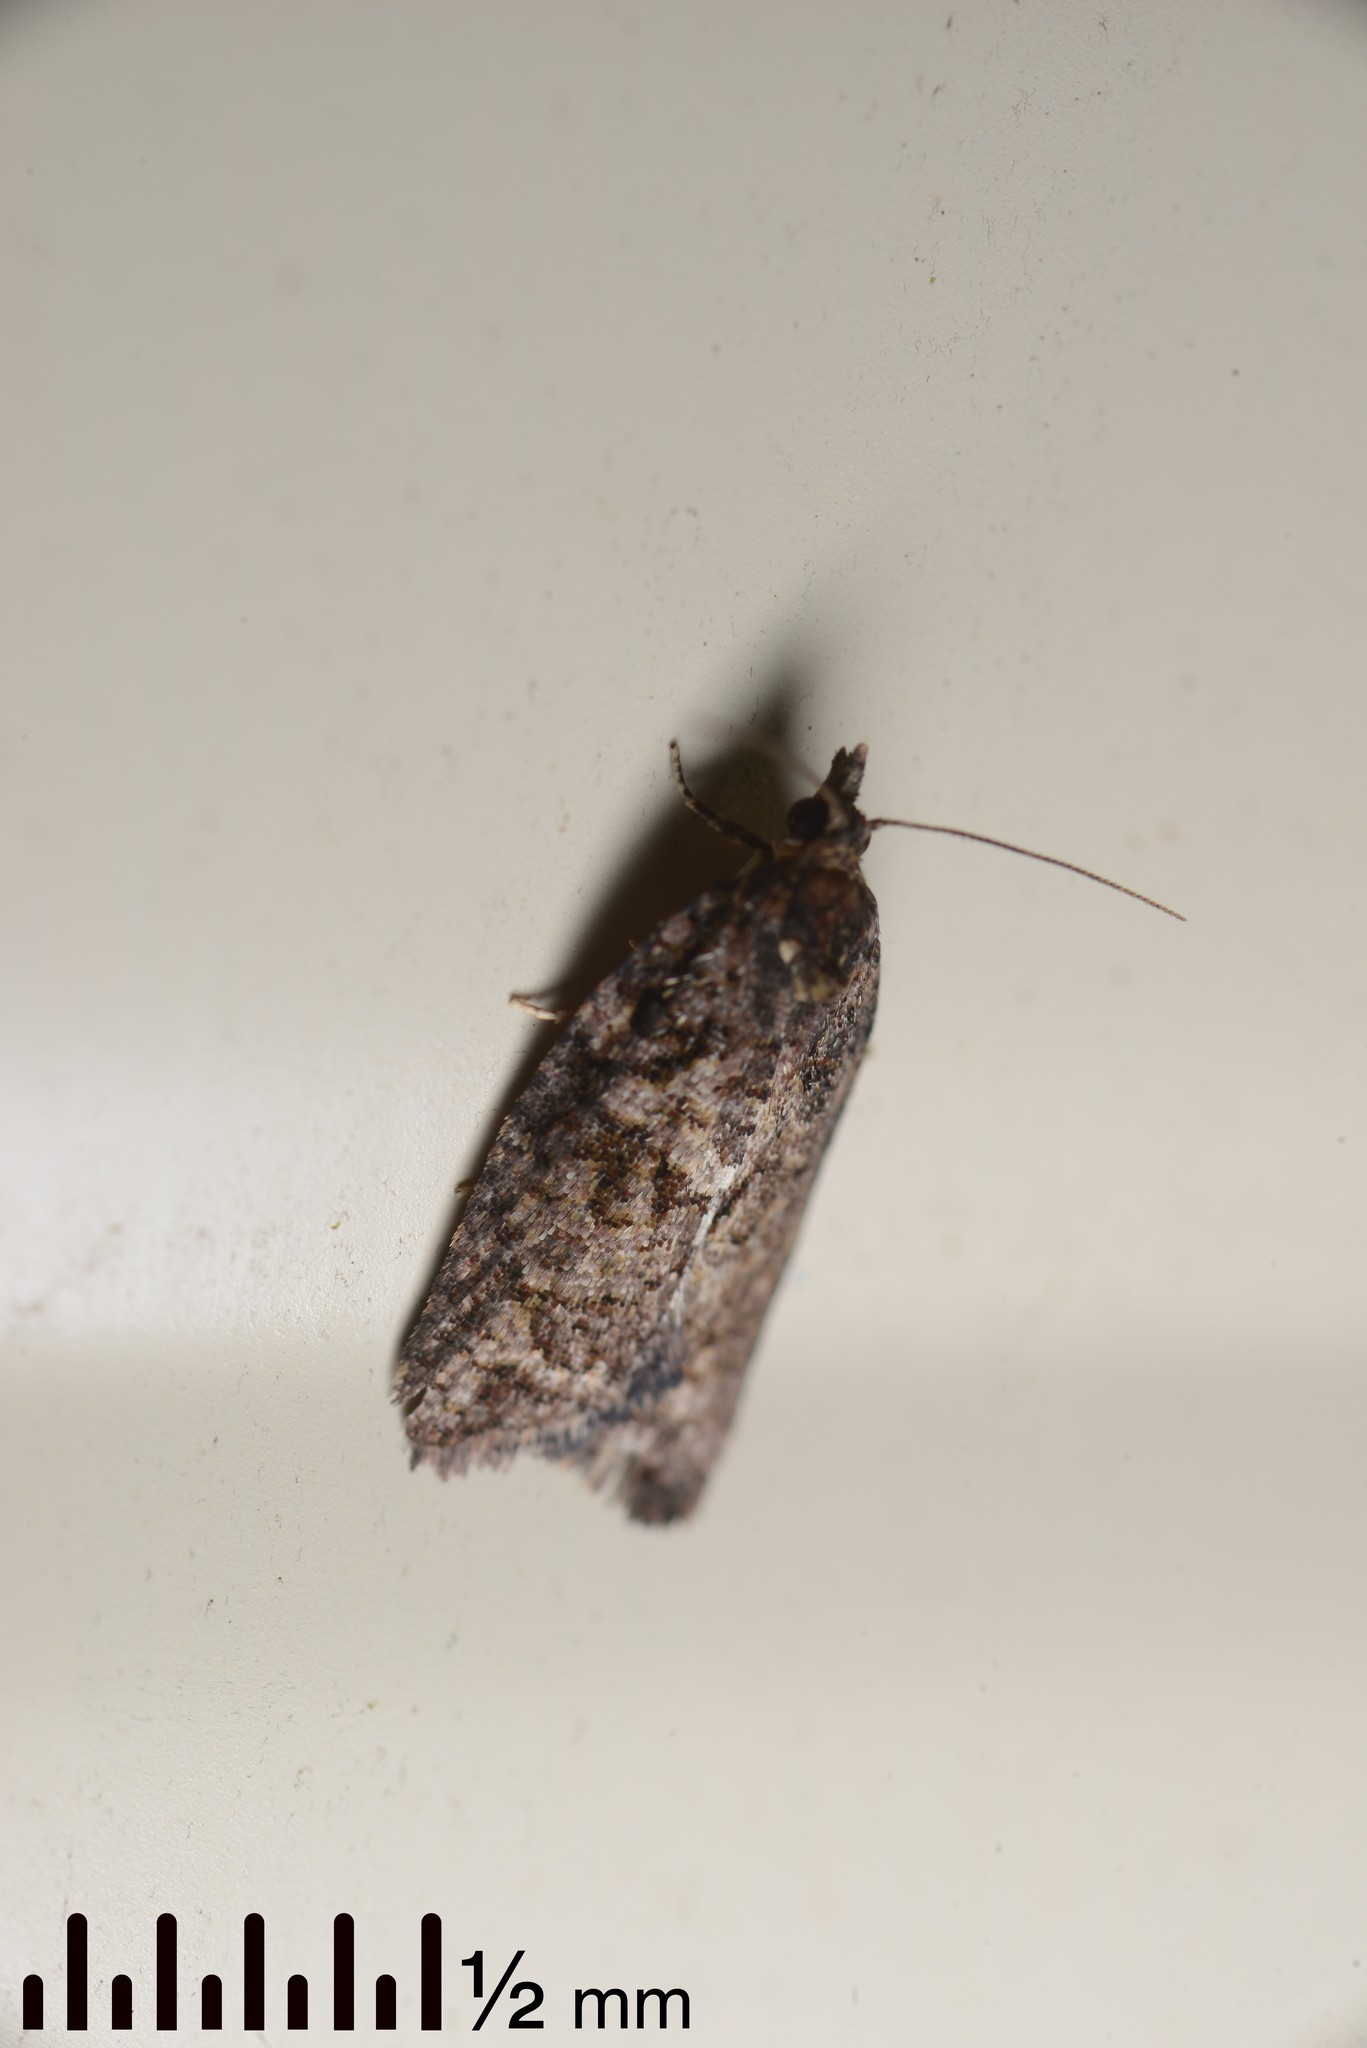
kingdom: Animalia
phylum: Arthropoda
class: Insecta
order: Lepidoptera
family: Tortricidae
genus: Capua
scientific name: Capua intractana
